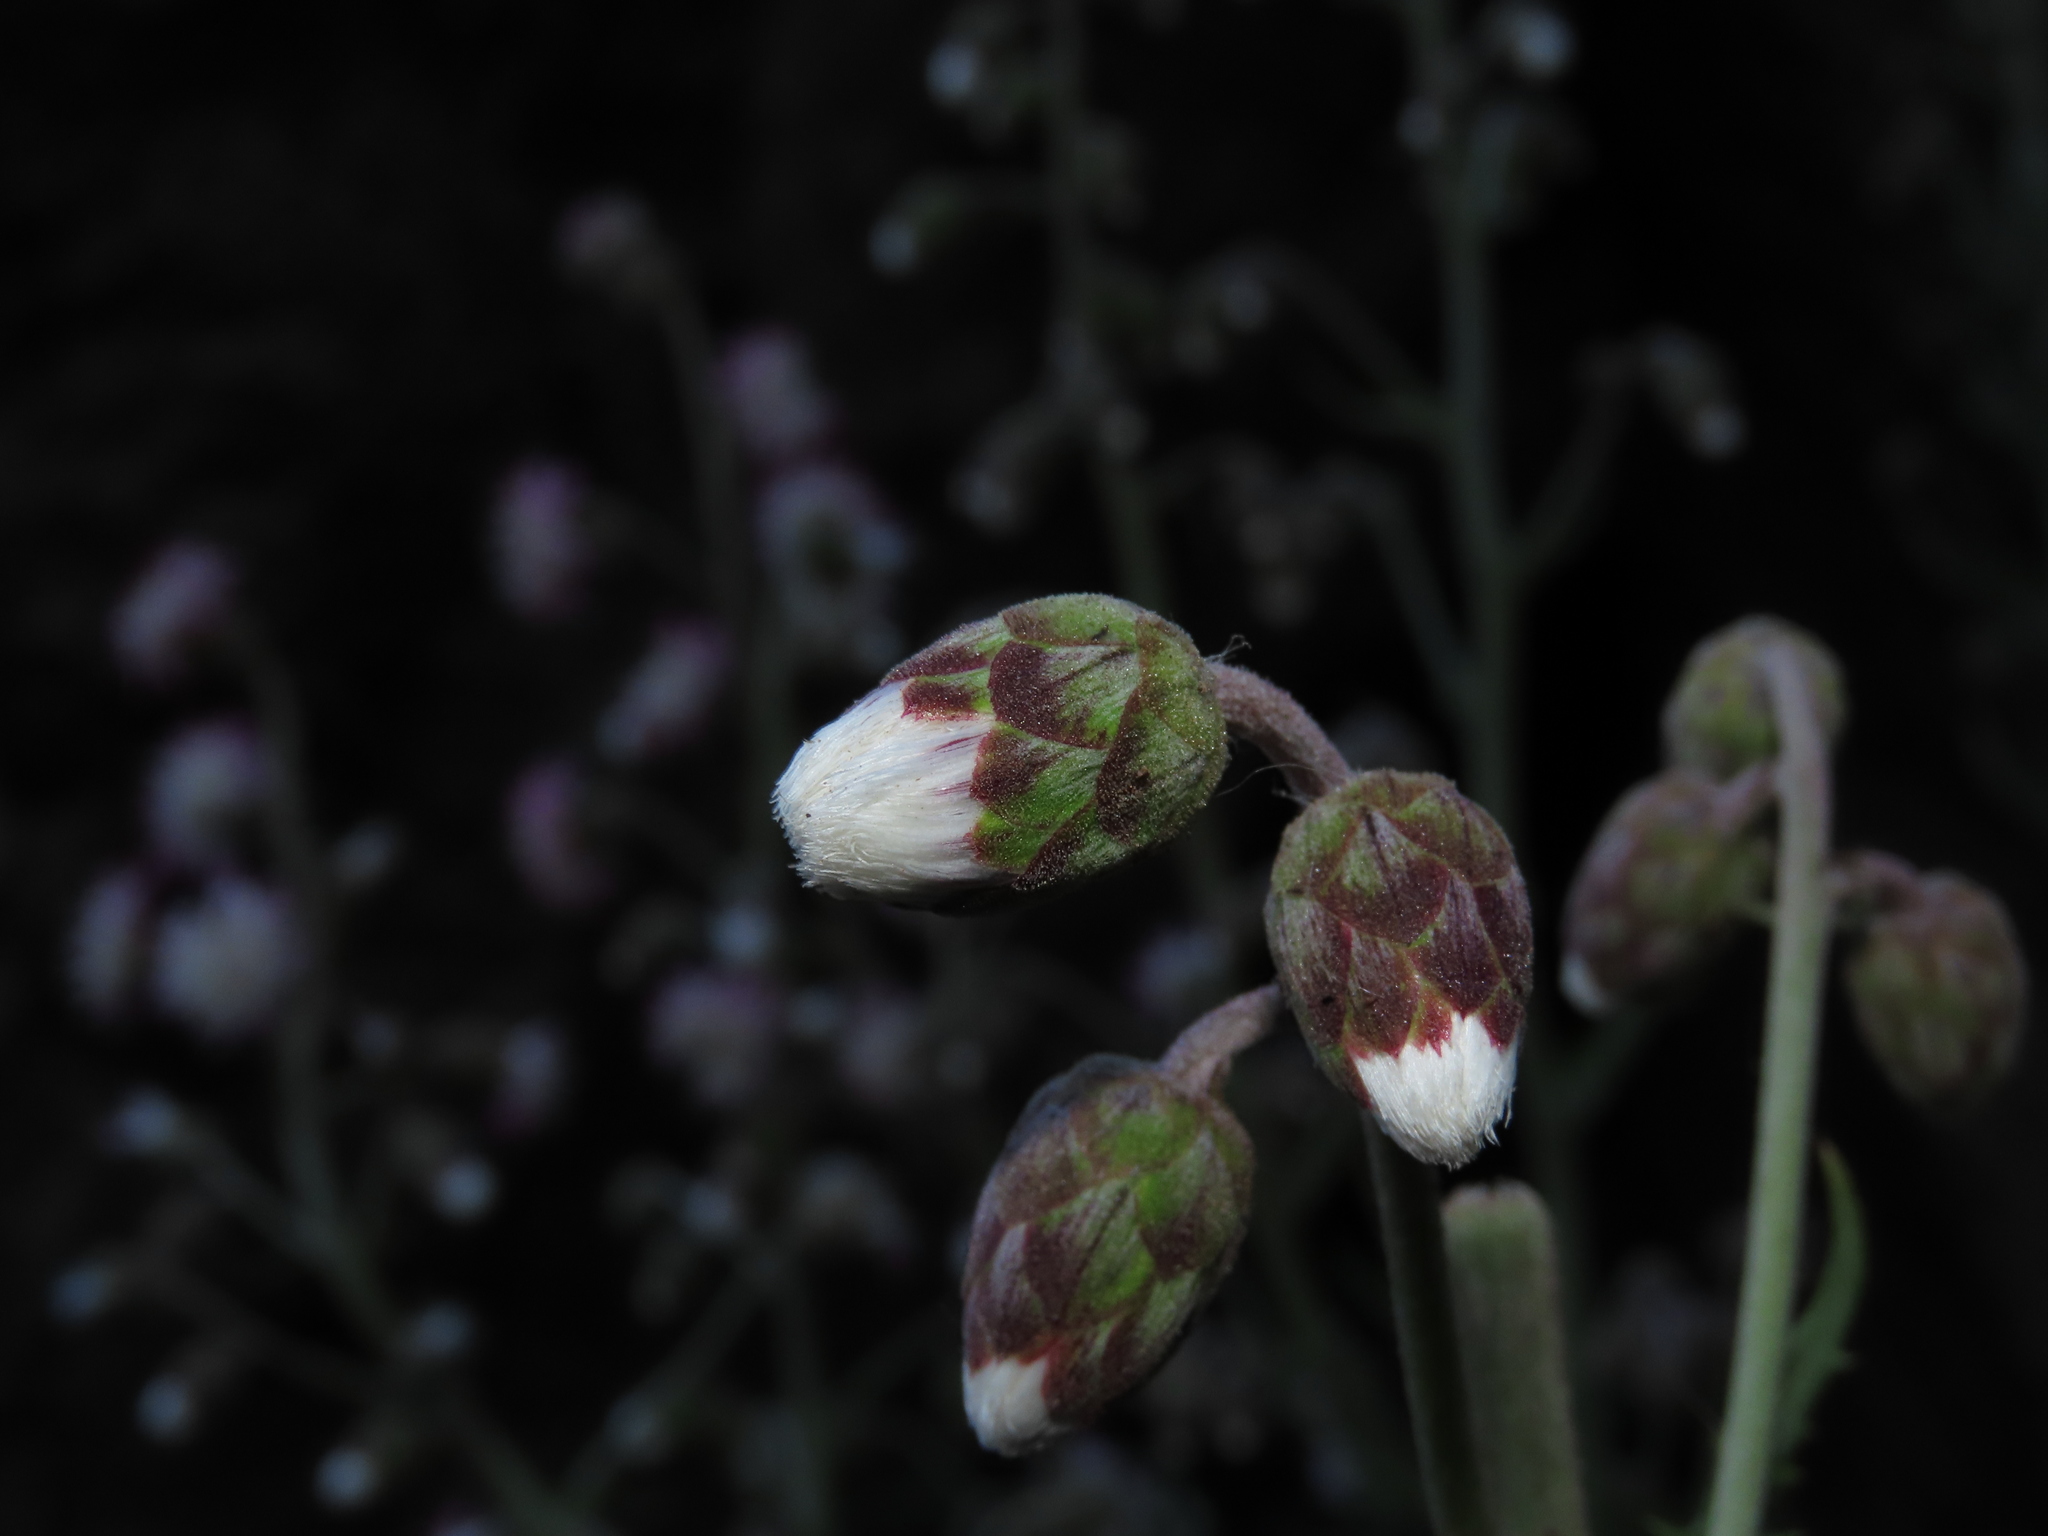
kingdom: Plantae
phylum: Tracheophyta
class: Magnoliopsida
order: Asterales
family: Asteraceae
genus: Leucheria
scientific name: Leucheria floribunda
